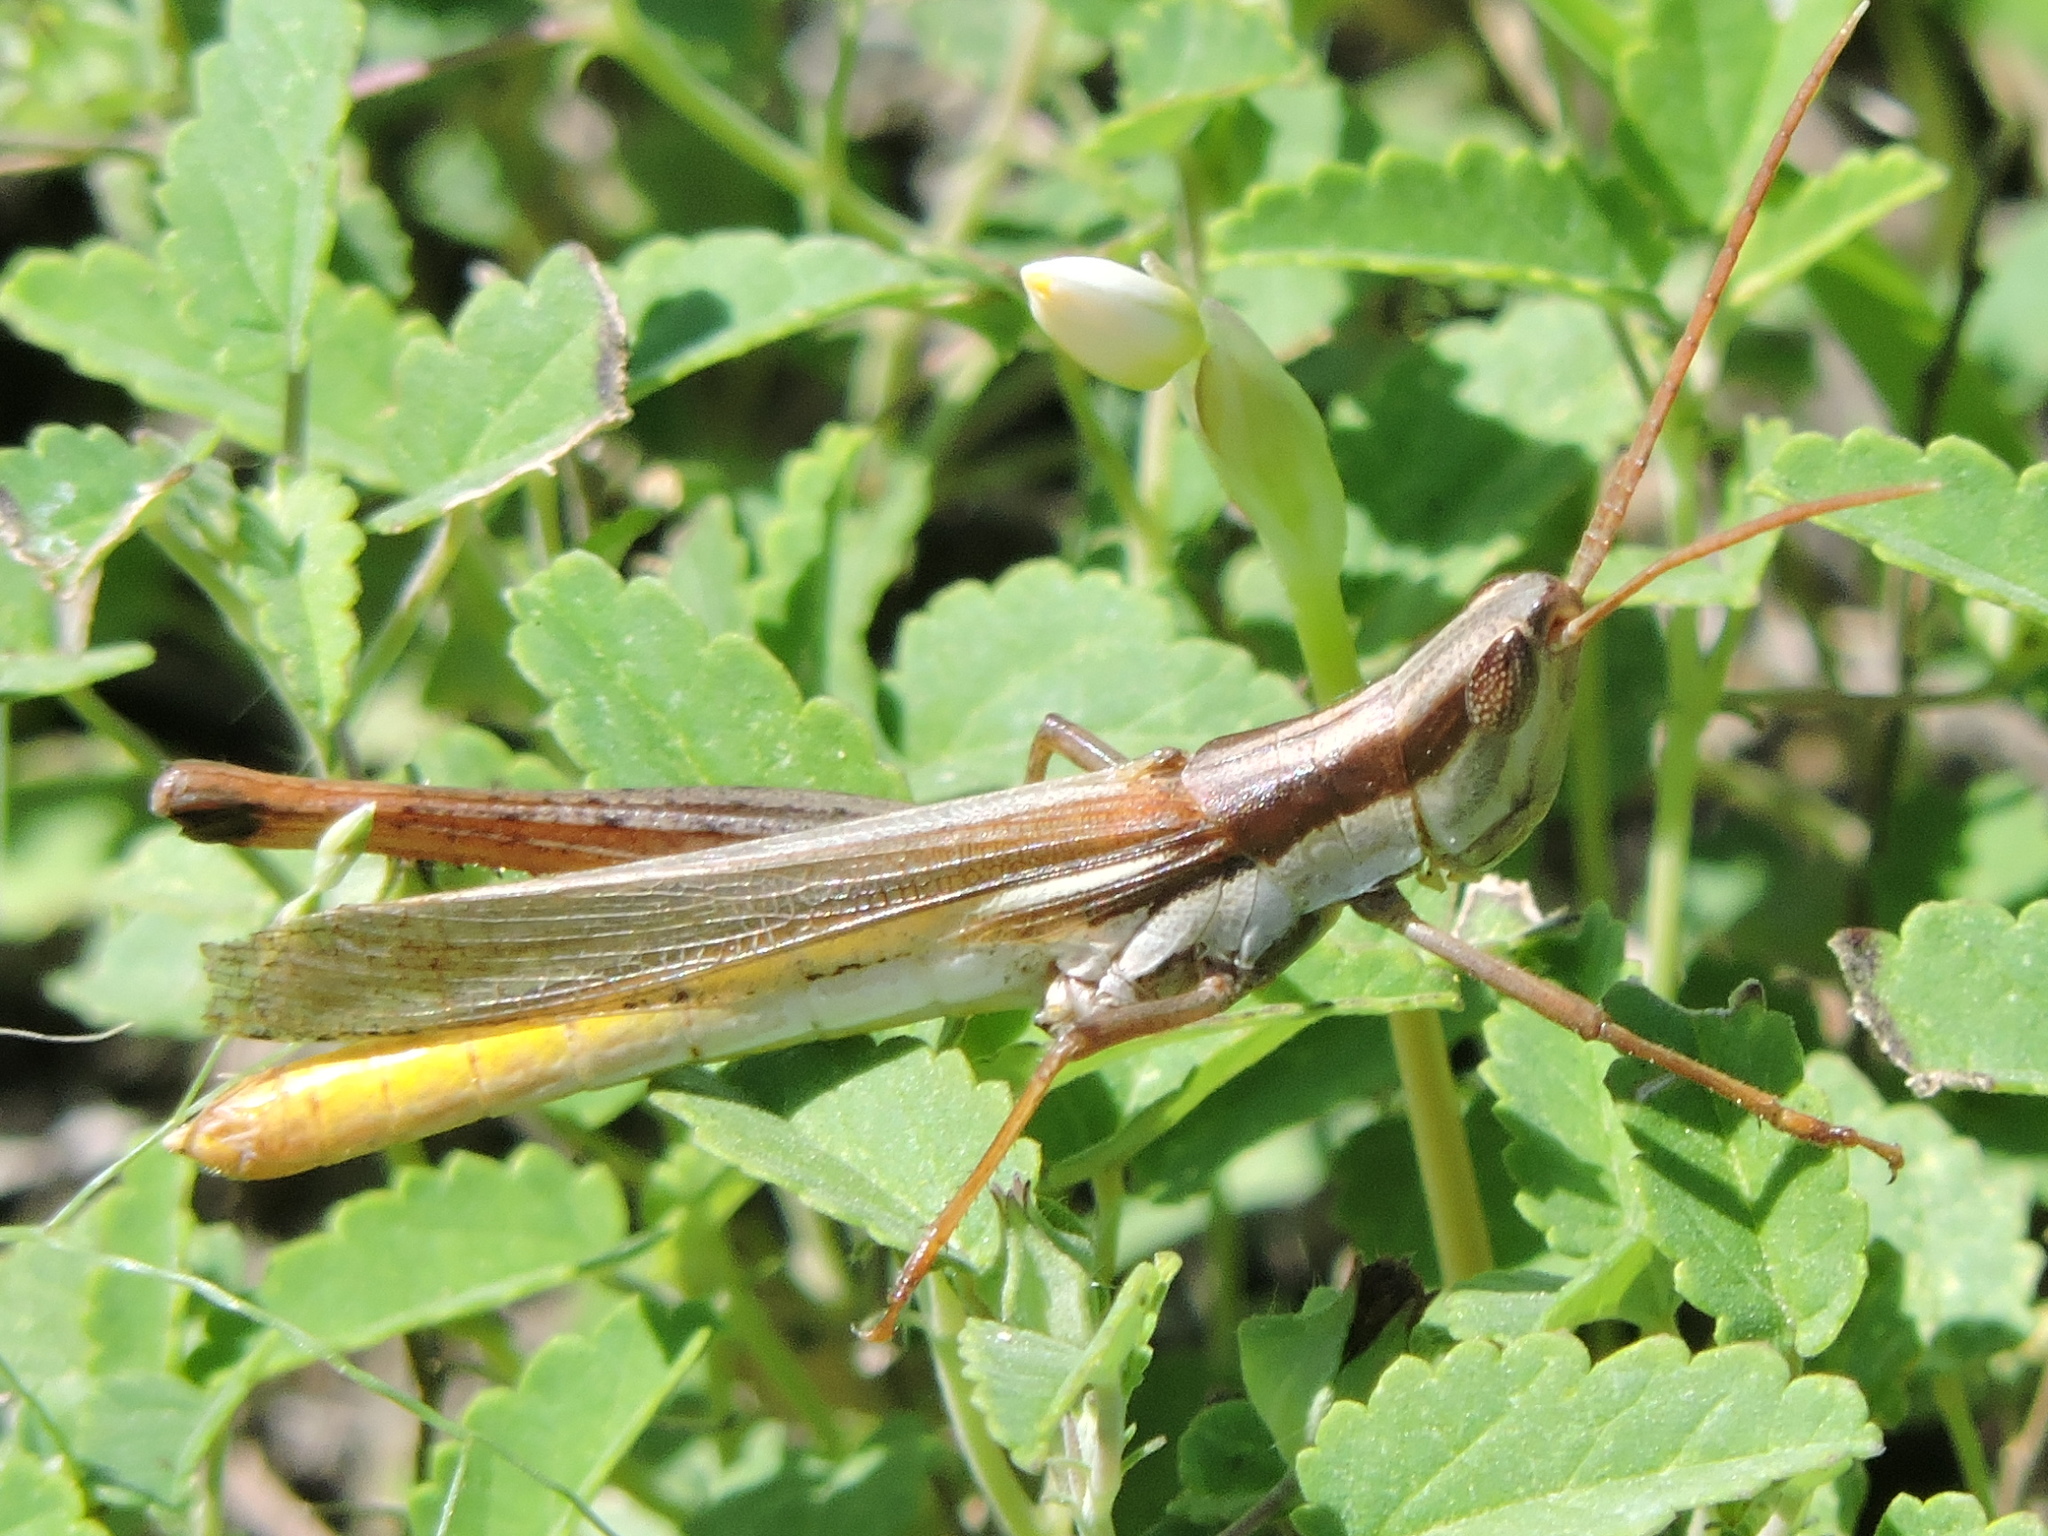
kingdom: Animalia
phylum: Arthropoda
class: Insecta
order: Orthoptera
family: Acrididae
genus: Mermiria
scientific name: Mermiria bivittata
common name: Two-striped mermiria grasshopper
